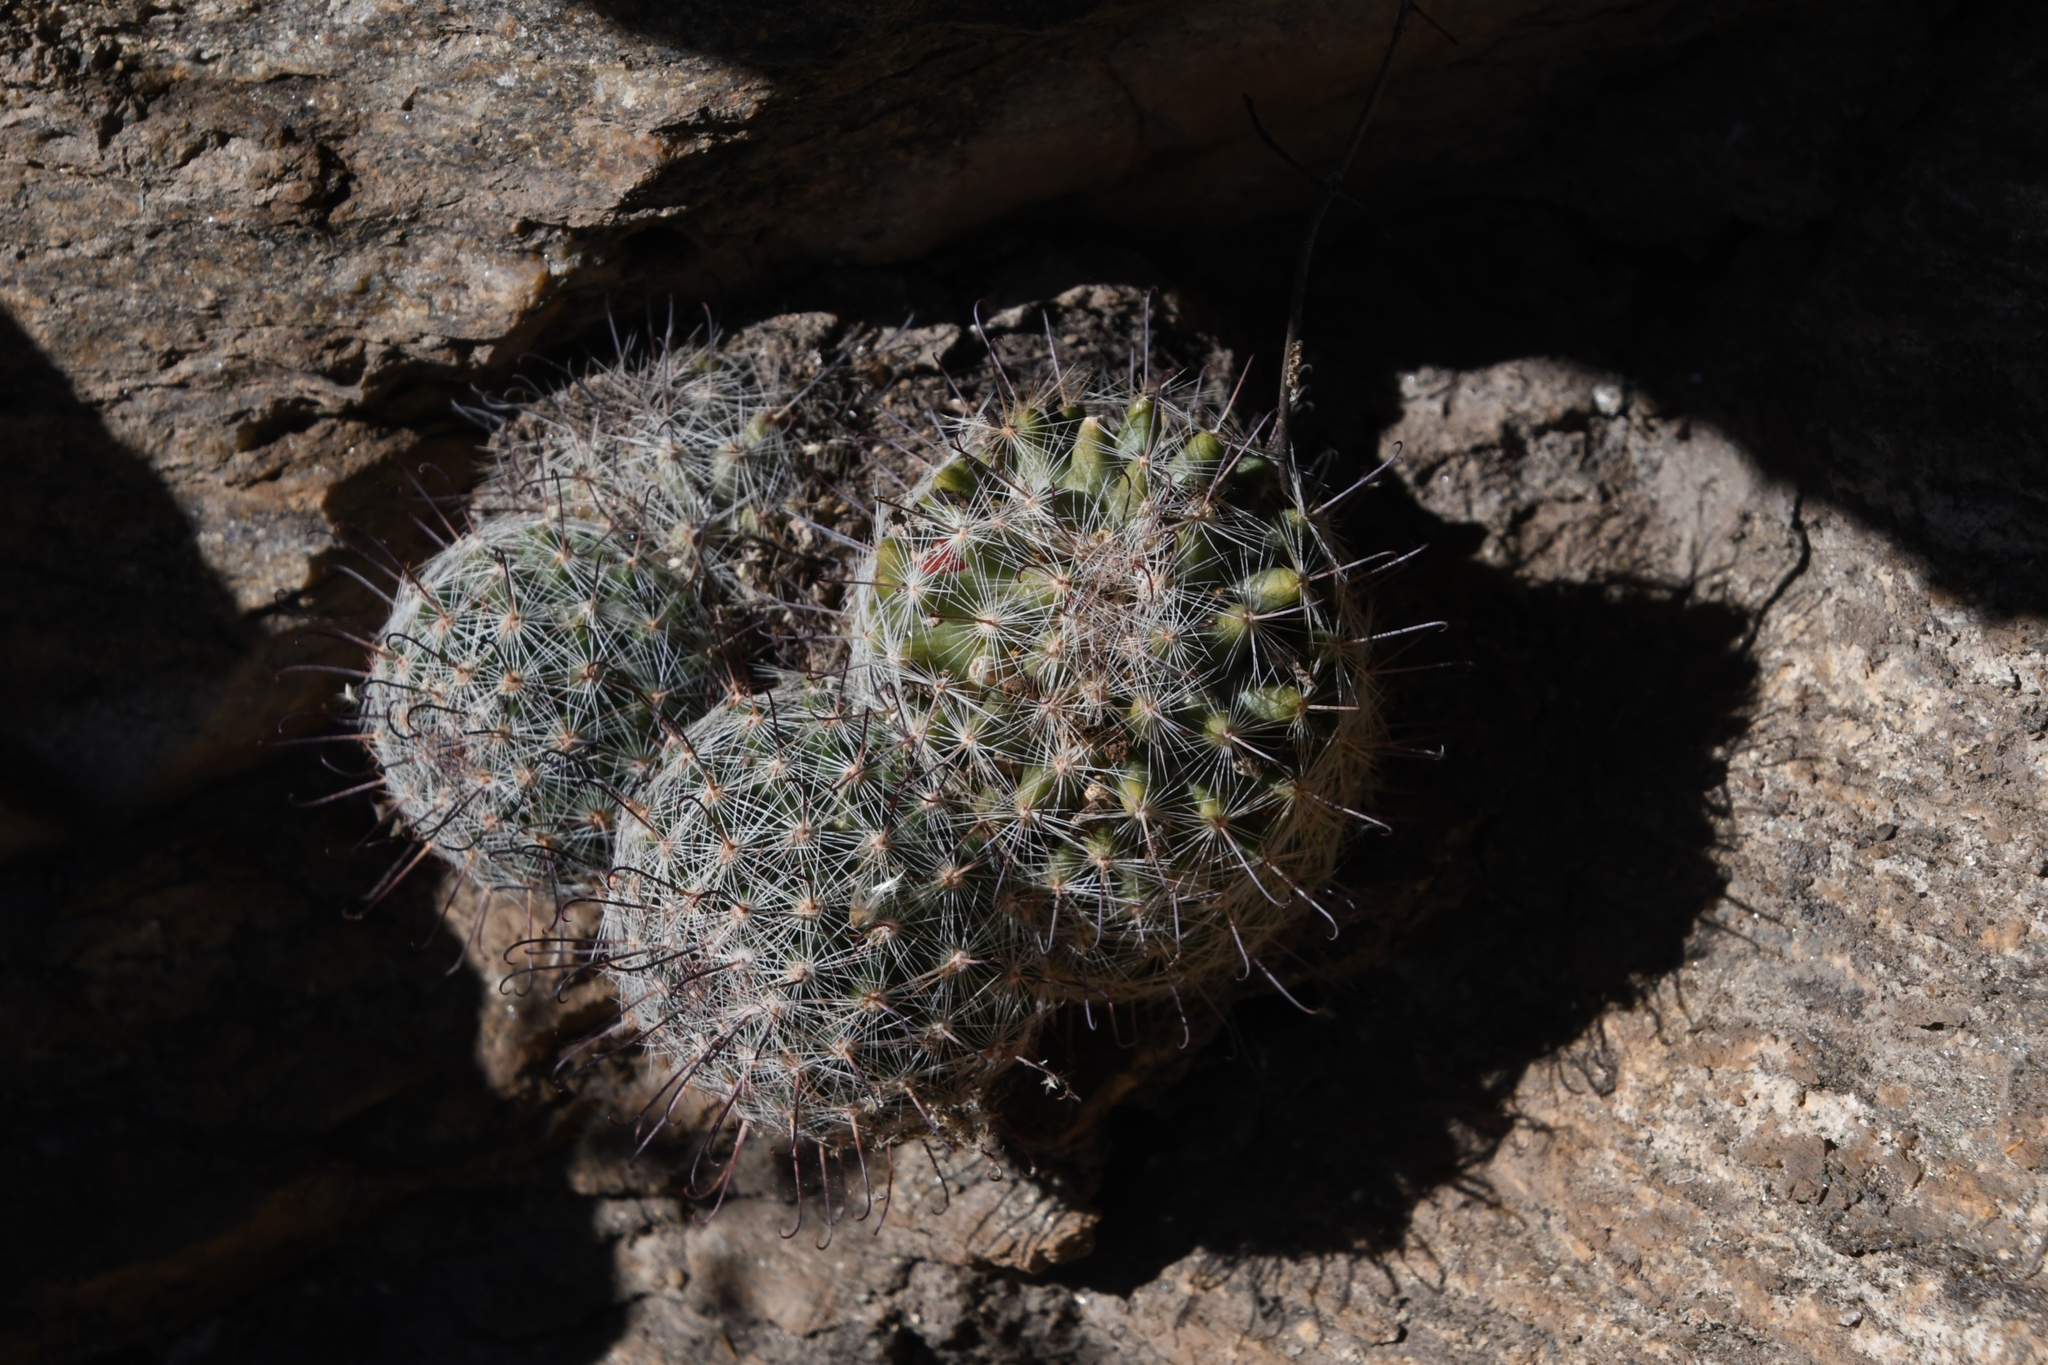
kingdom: Plantae
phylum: Tracheophyta
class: Magnoliopsida
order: Caryophyllales
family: Cactaceae
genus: Cochemiea
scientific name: Cochemiea grahamii
